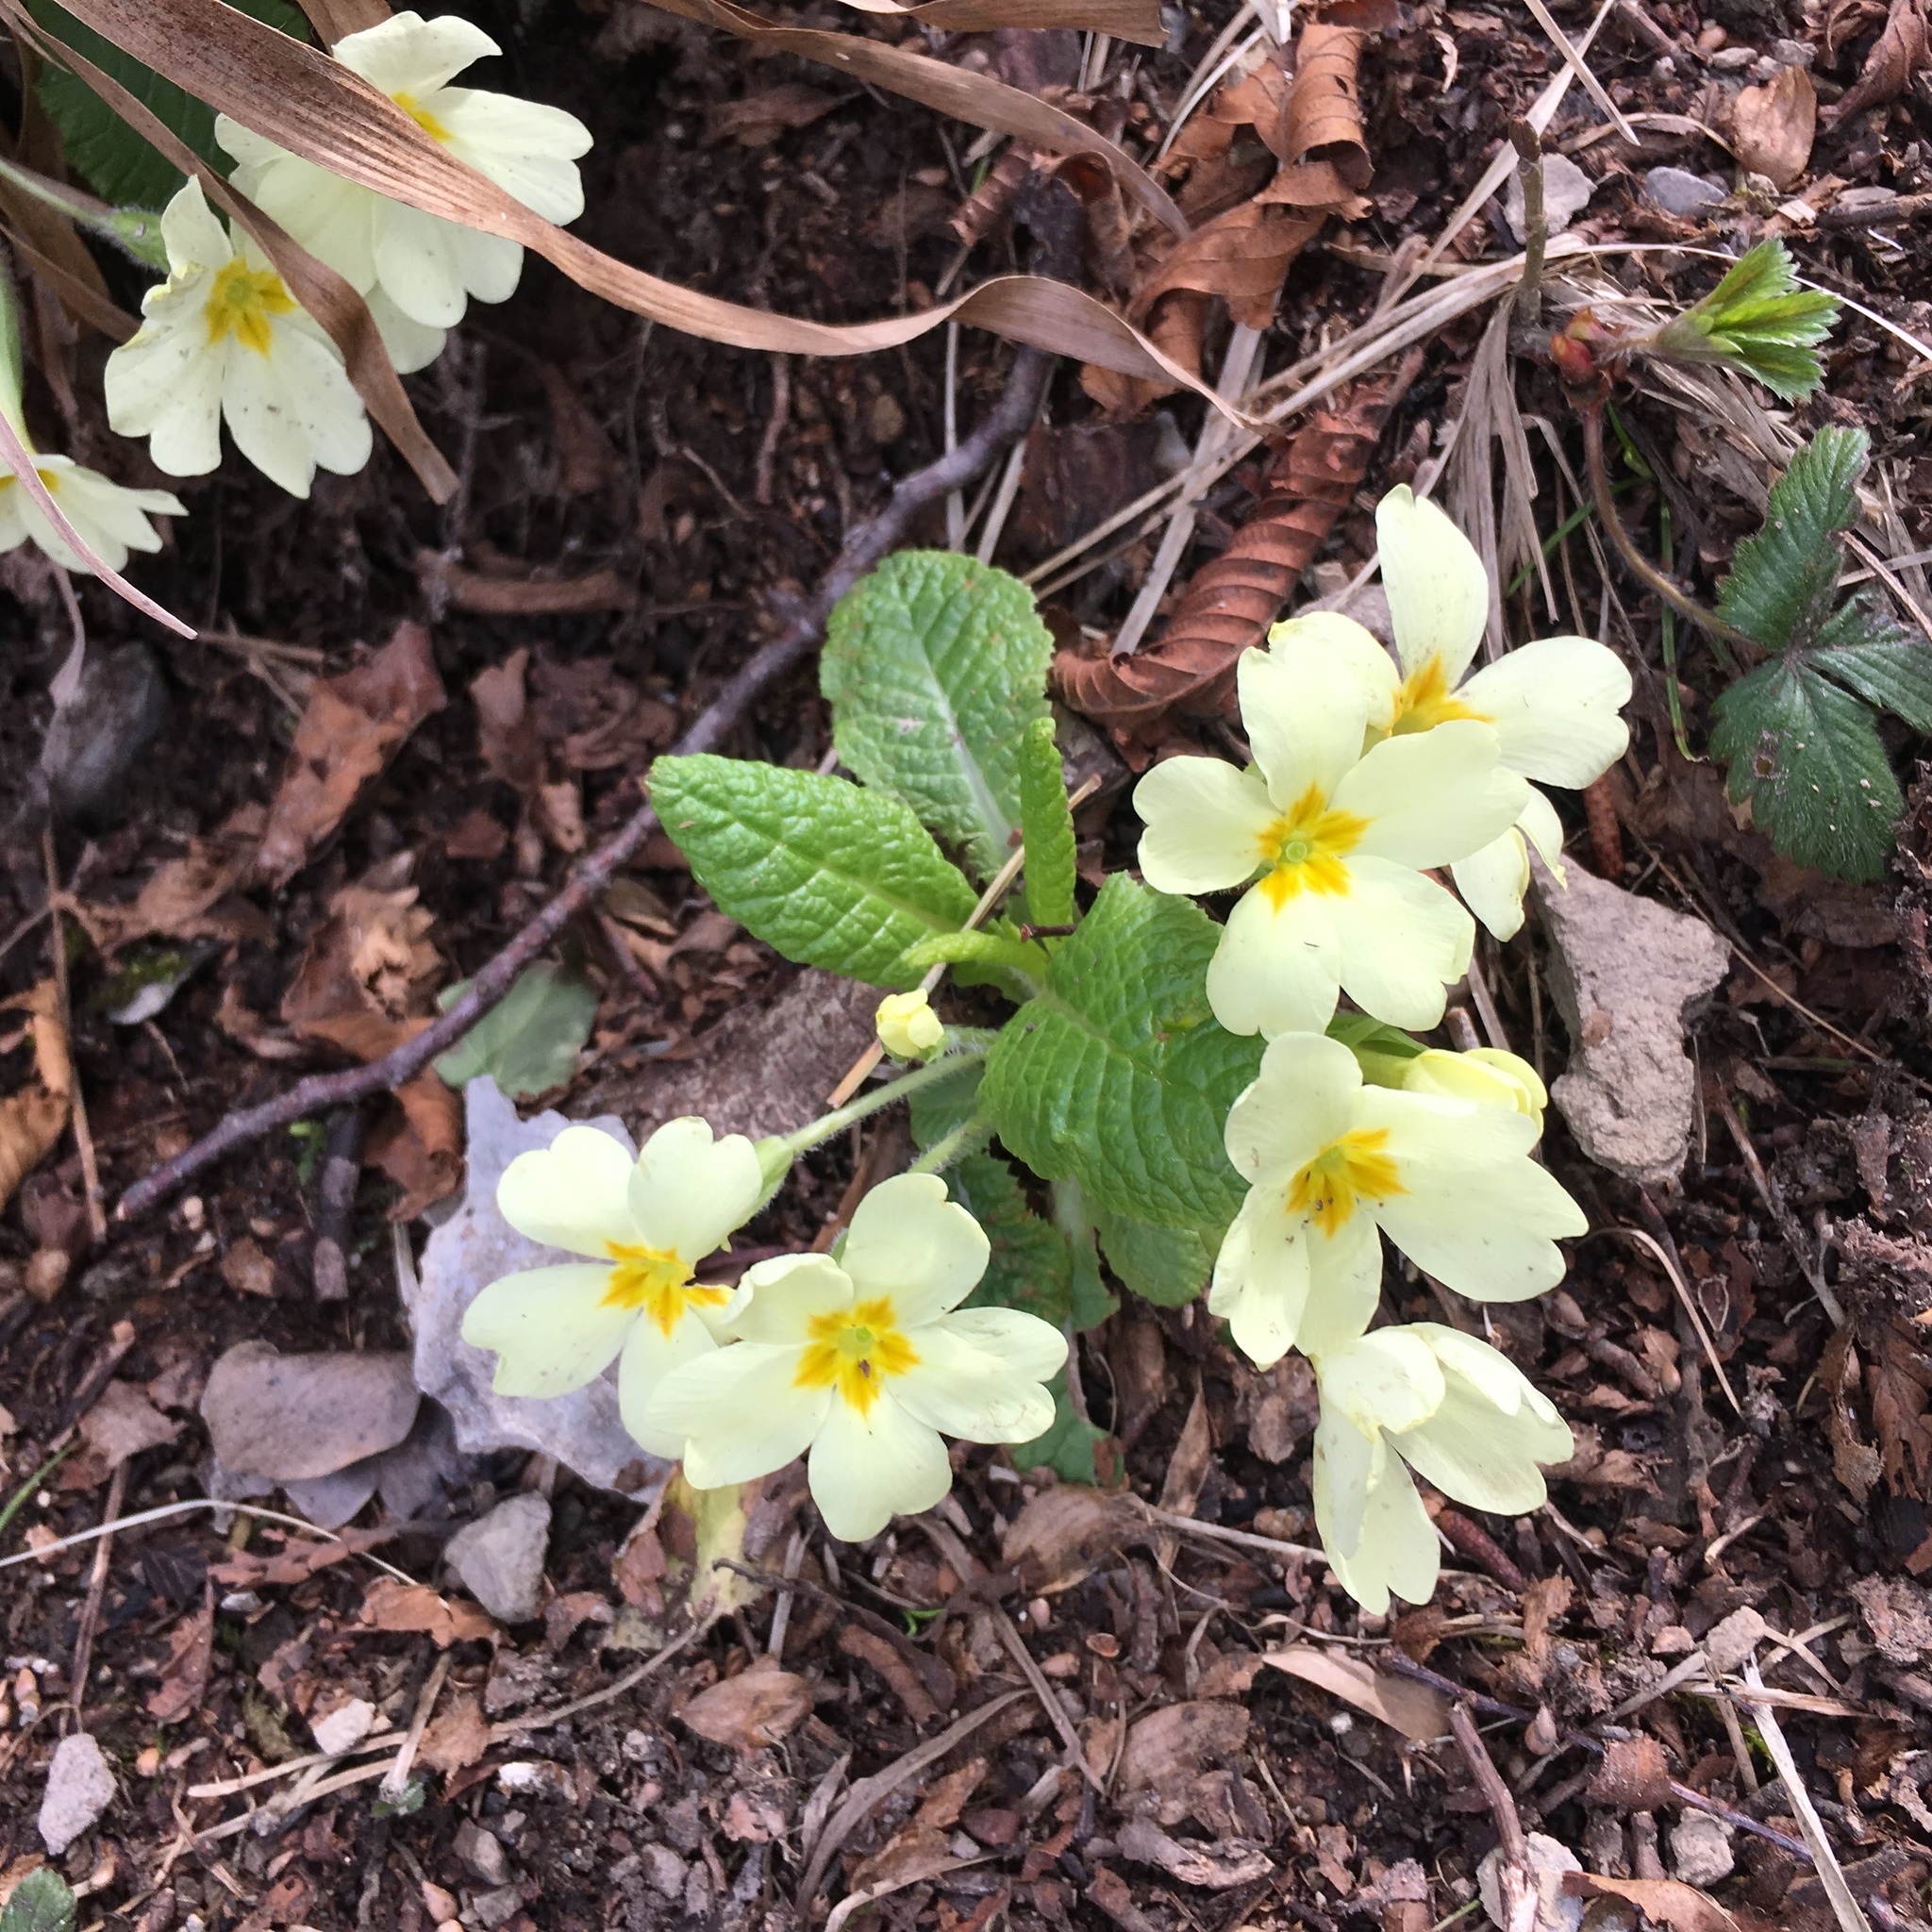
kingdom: Plantae
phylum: Tracheophyta
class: Magnoliopsida
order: Ericales
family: Primulaceae
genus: Primula
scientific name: Primula vulgaris
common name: Primrose
